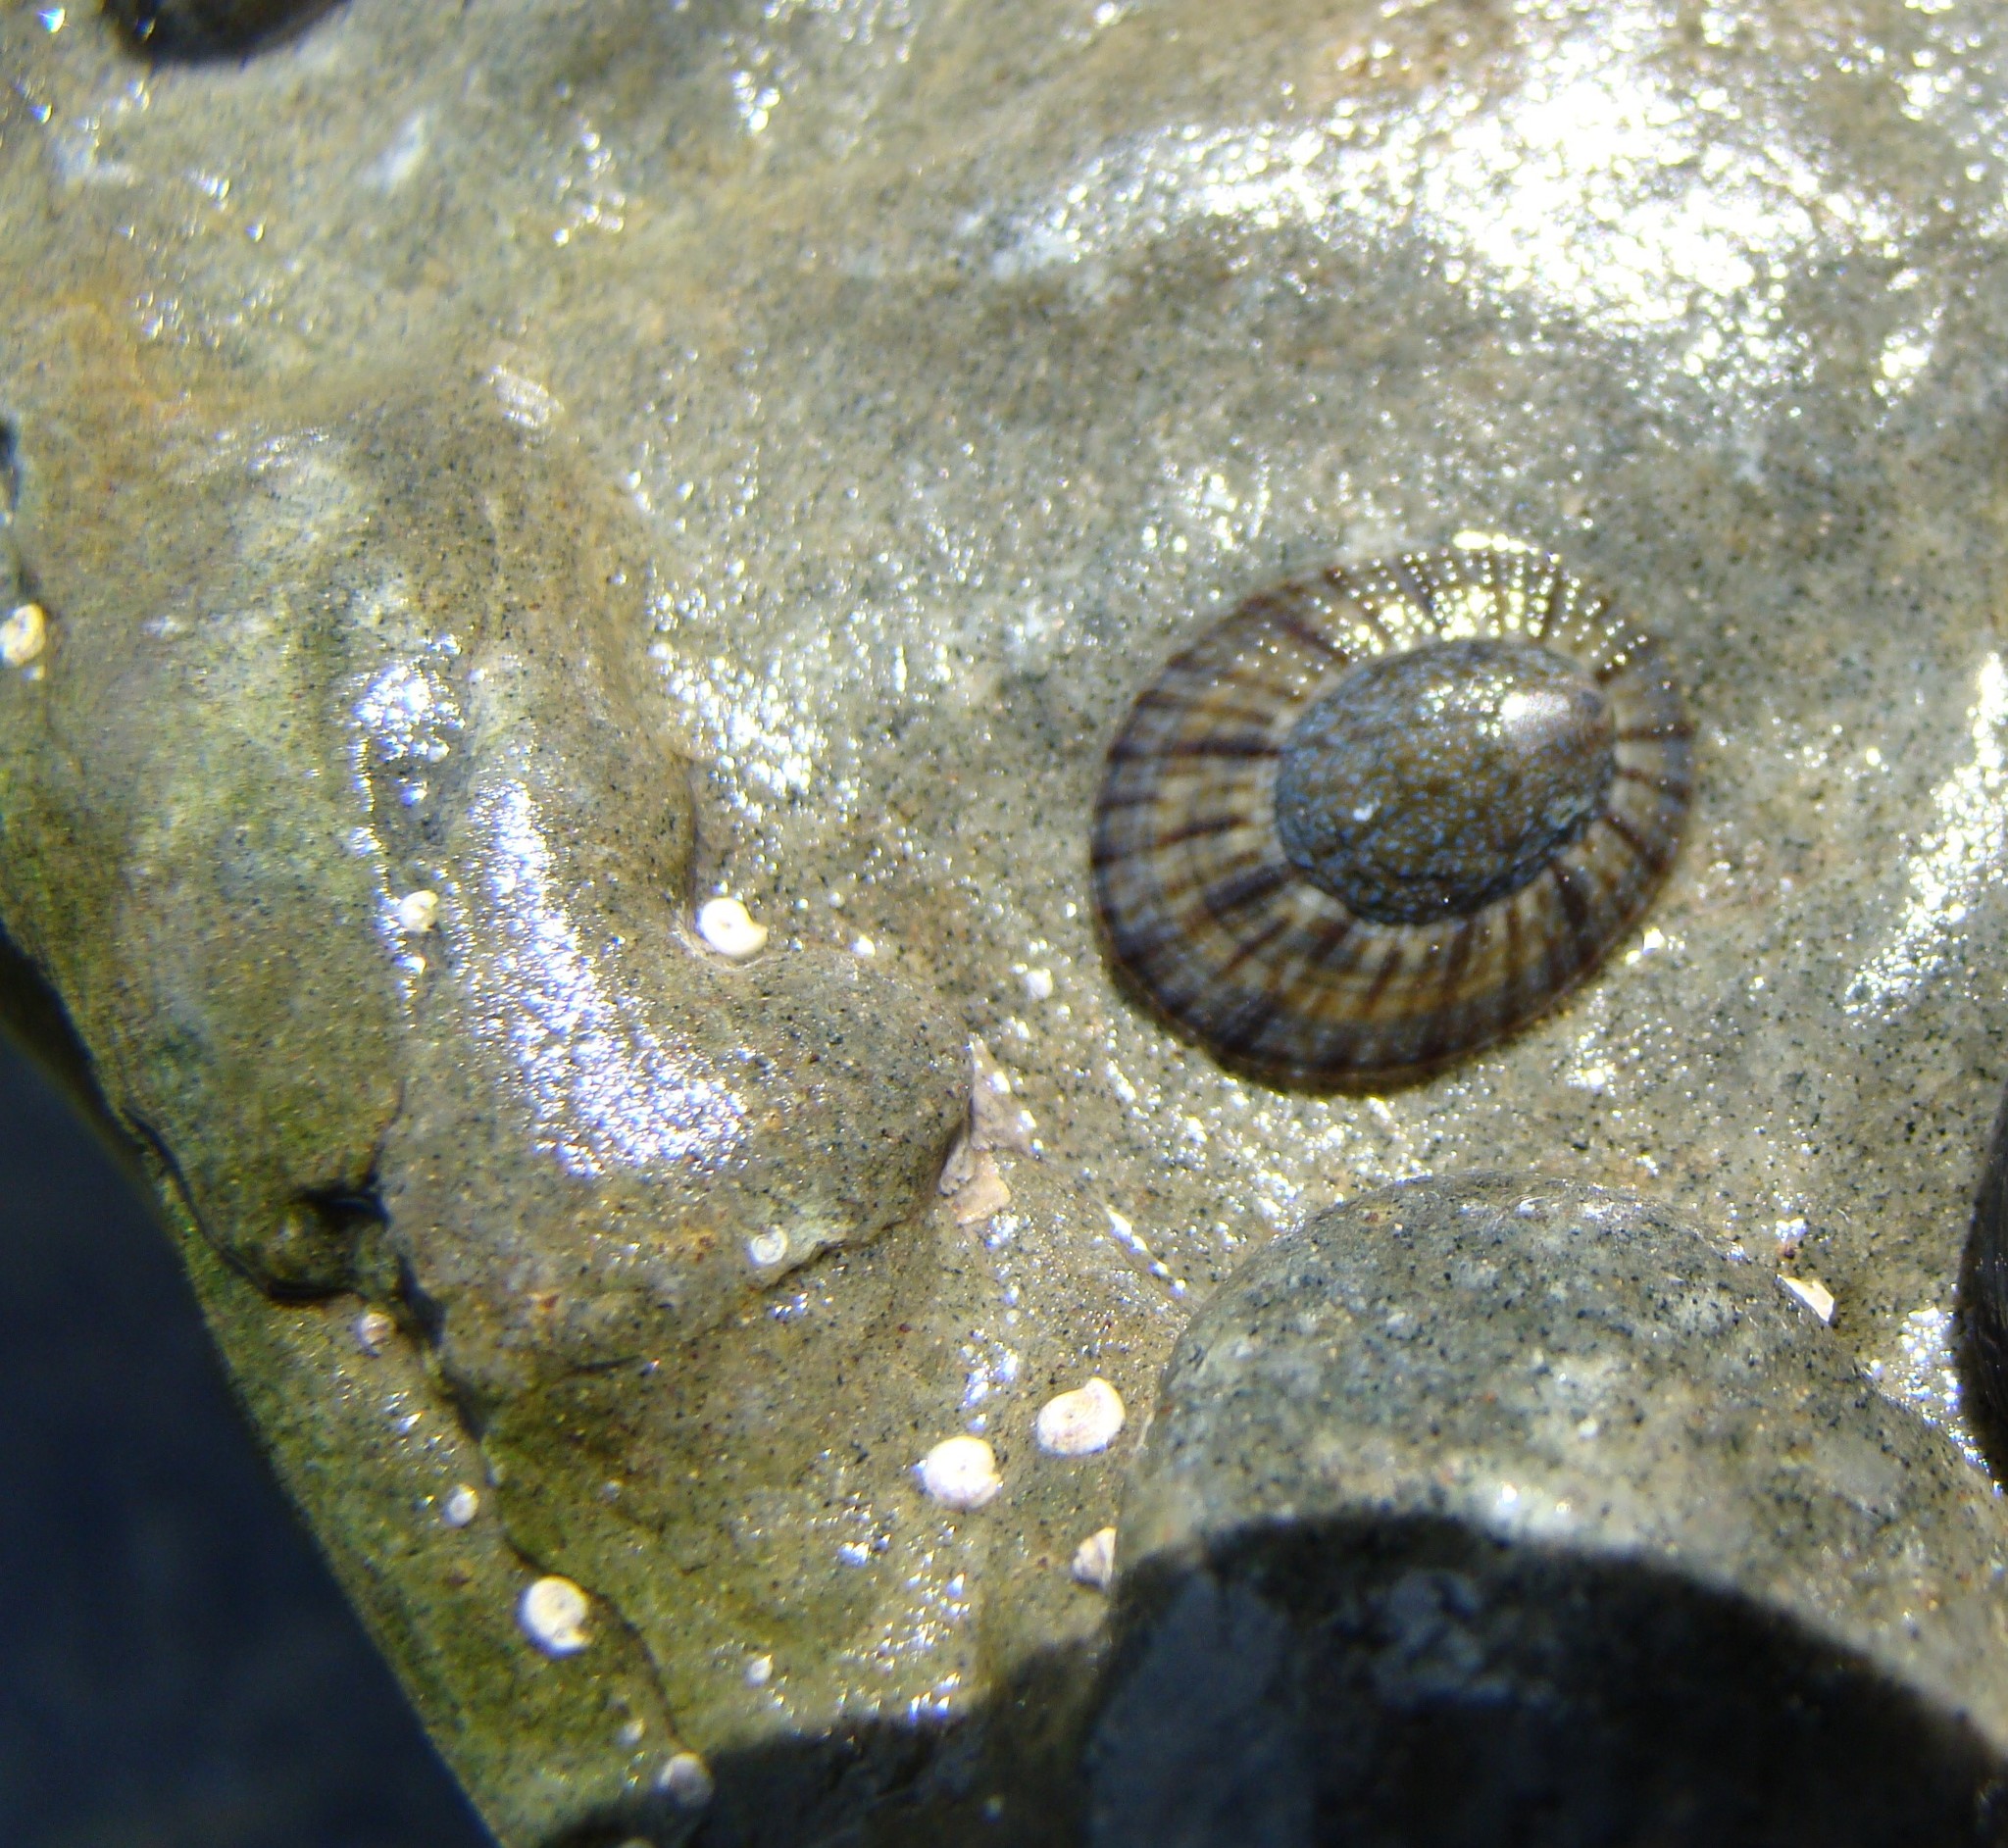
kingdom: Animalia
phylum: Mollusca
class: Gastropoda
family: Nacellidae
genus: Cellana
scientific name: Cellana radians
